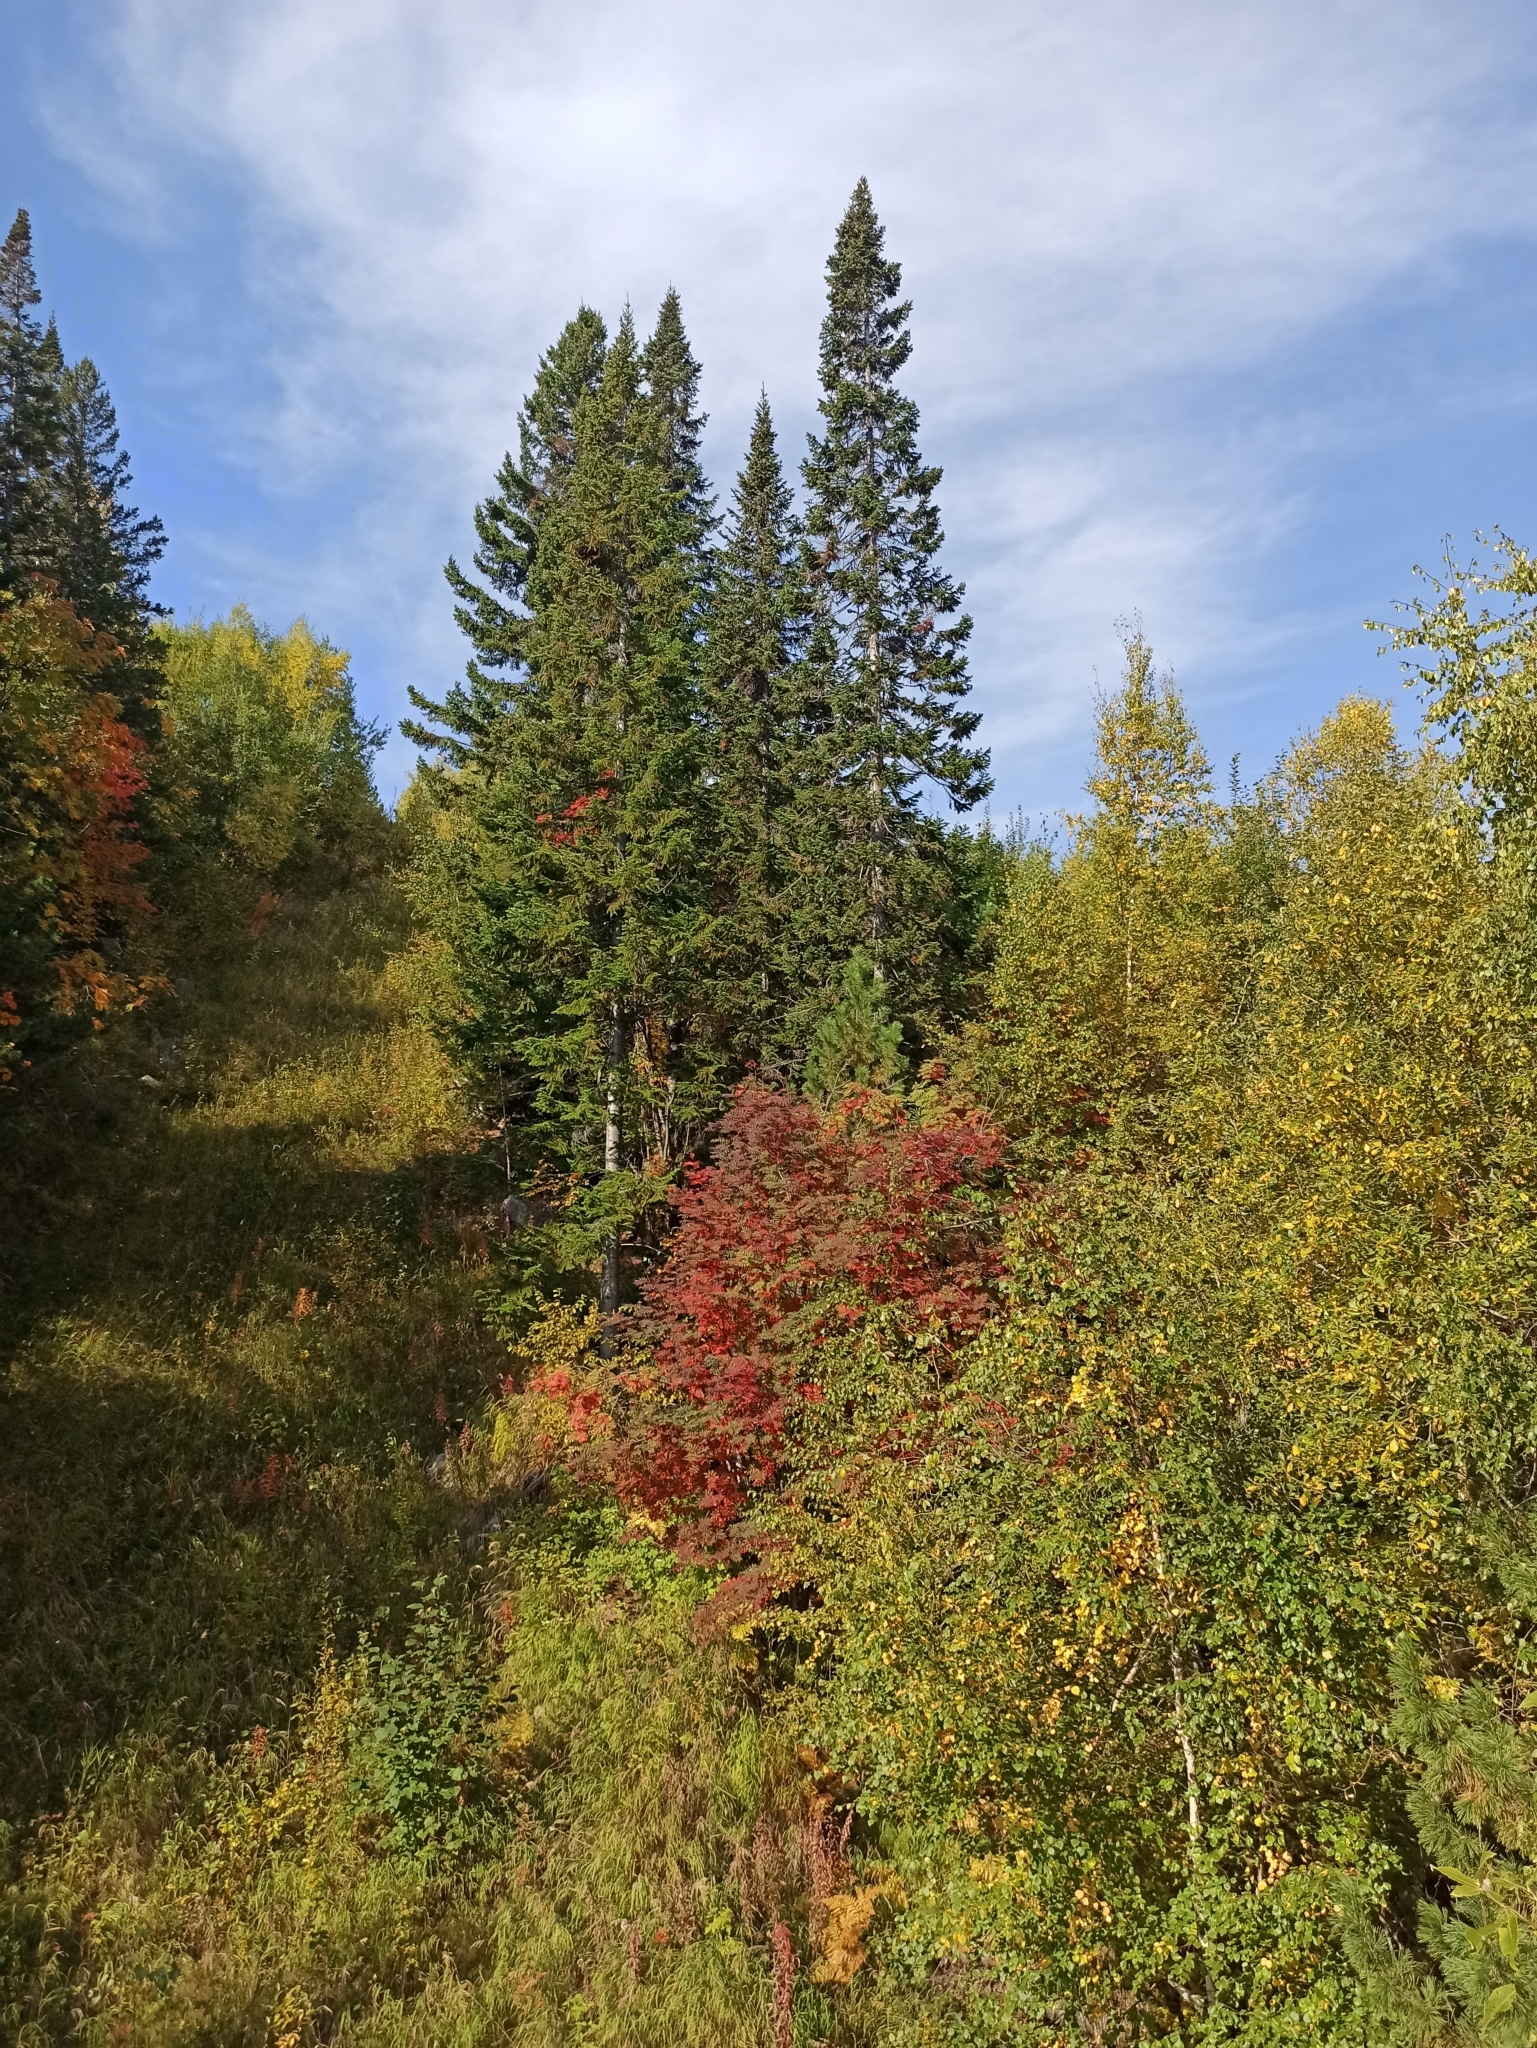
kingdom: Plantae
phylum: Tracheophyta
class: Pinopsida
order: Pinales
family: Pinaceae
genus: Abies
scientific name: Abies sibirica
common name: Siberian fir
